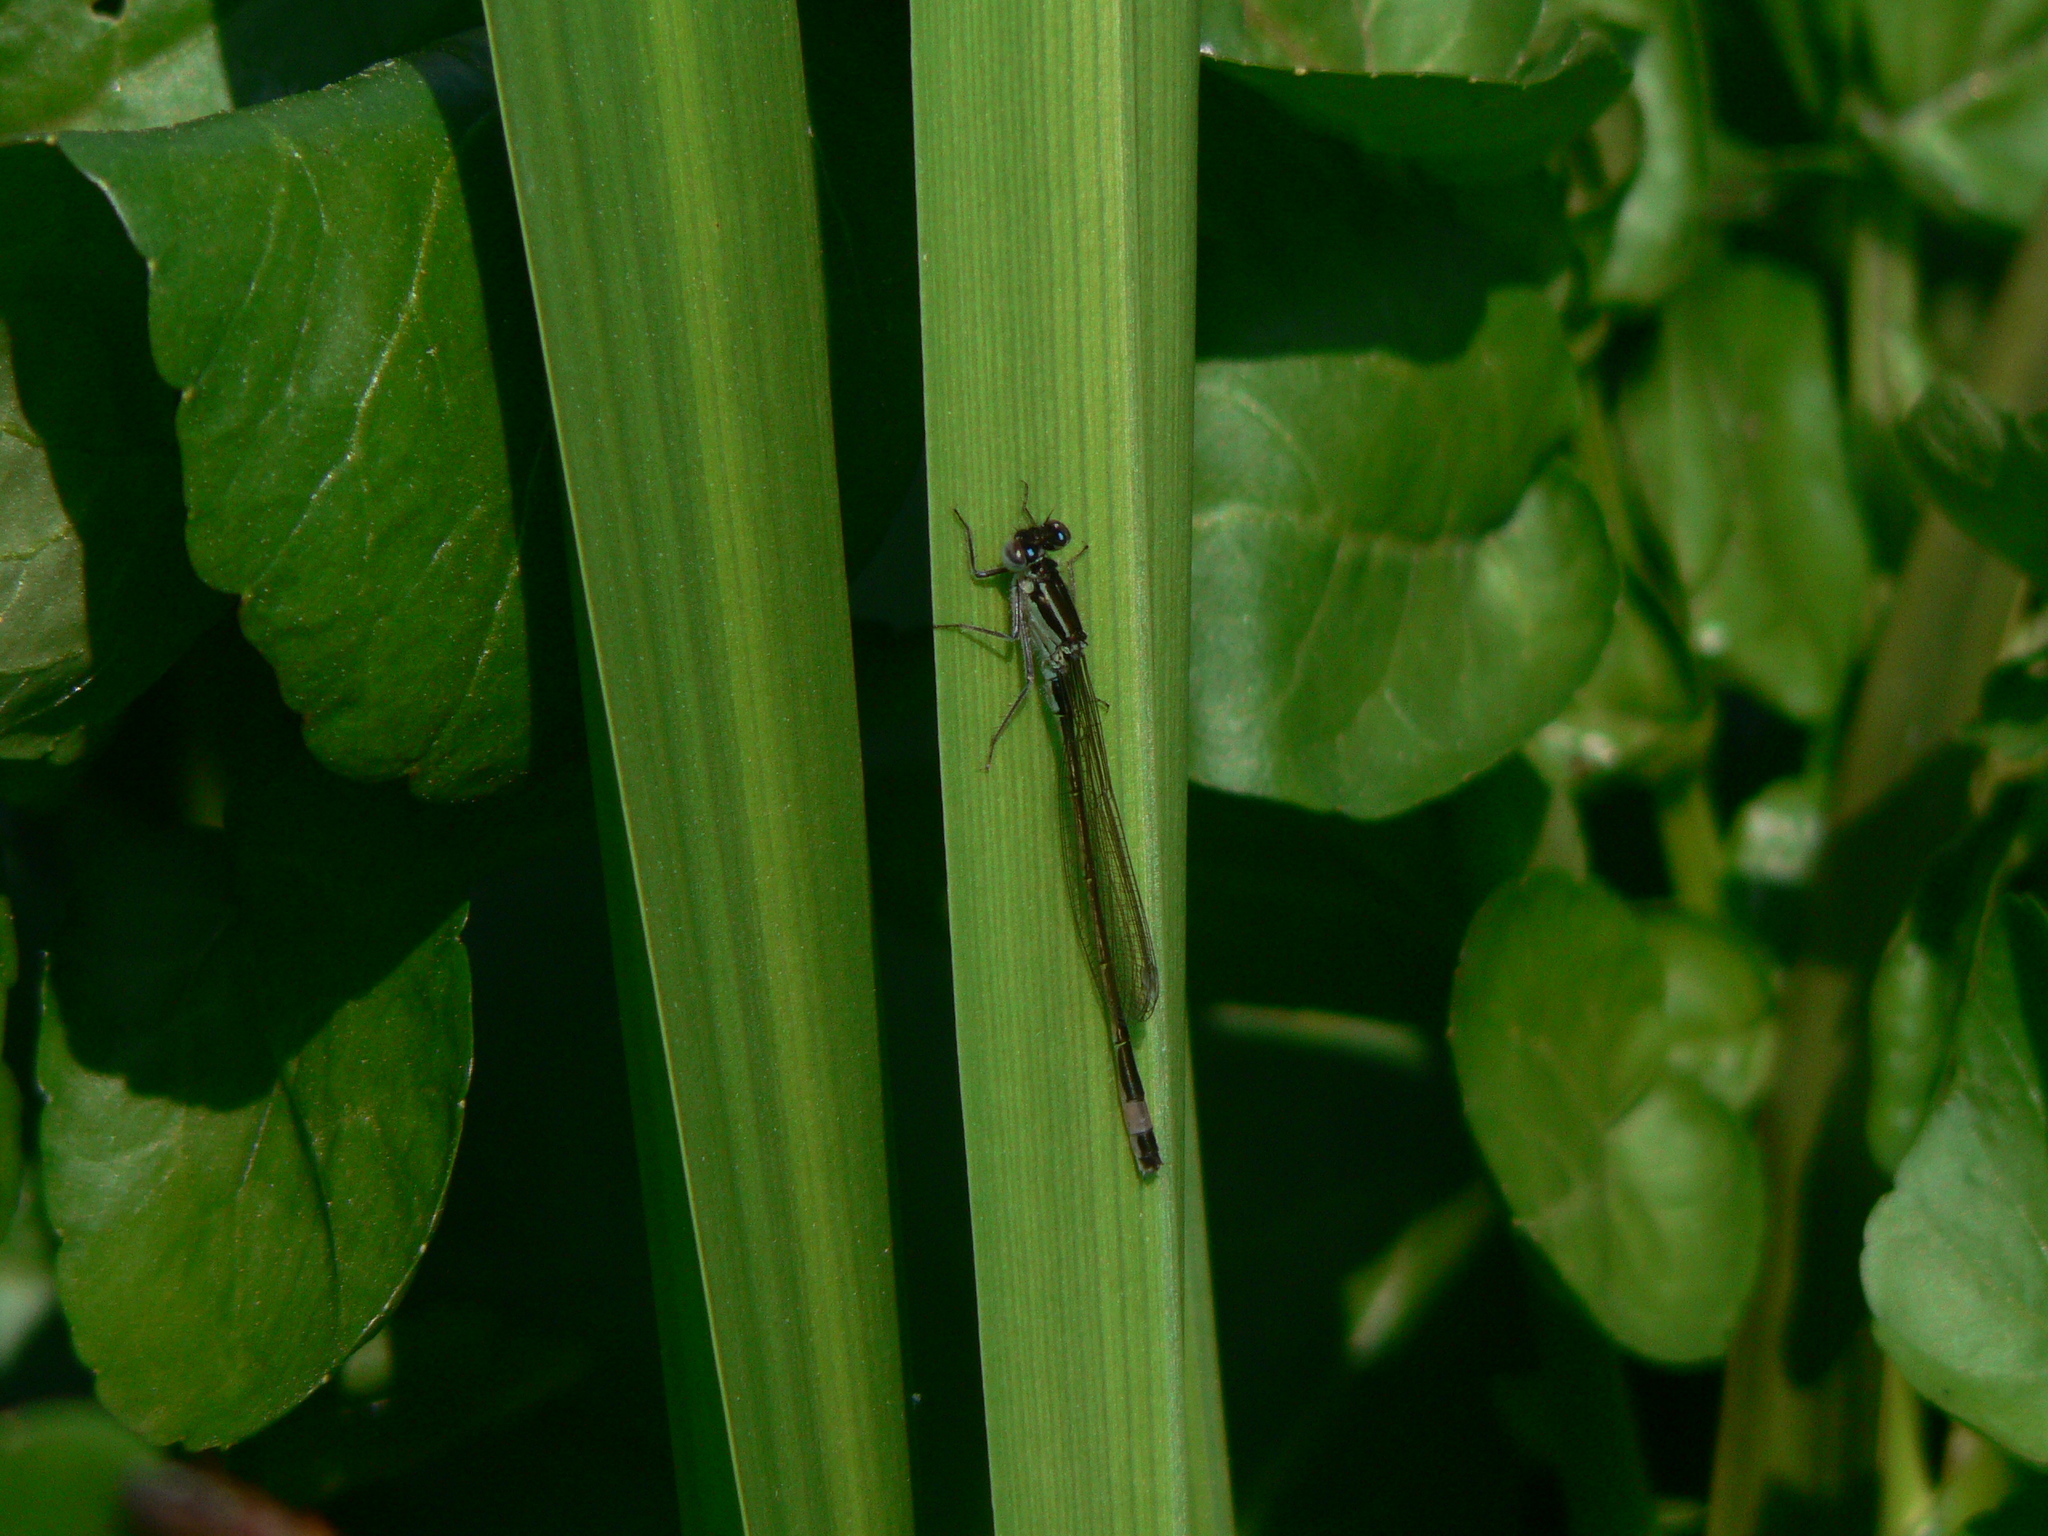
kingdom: Animalia
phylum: Arthropoda
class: Insecta
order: Odonata
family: Coenagrionidae
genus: Ischnura
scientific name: Ischnura elegans
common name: Blue-tailed damselfly
